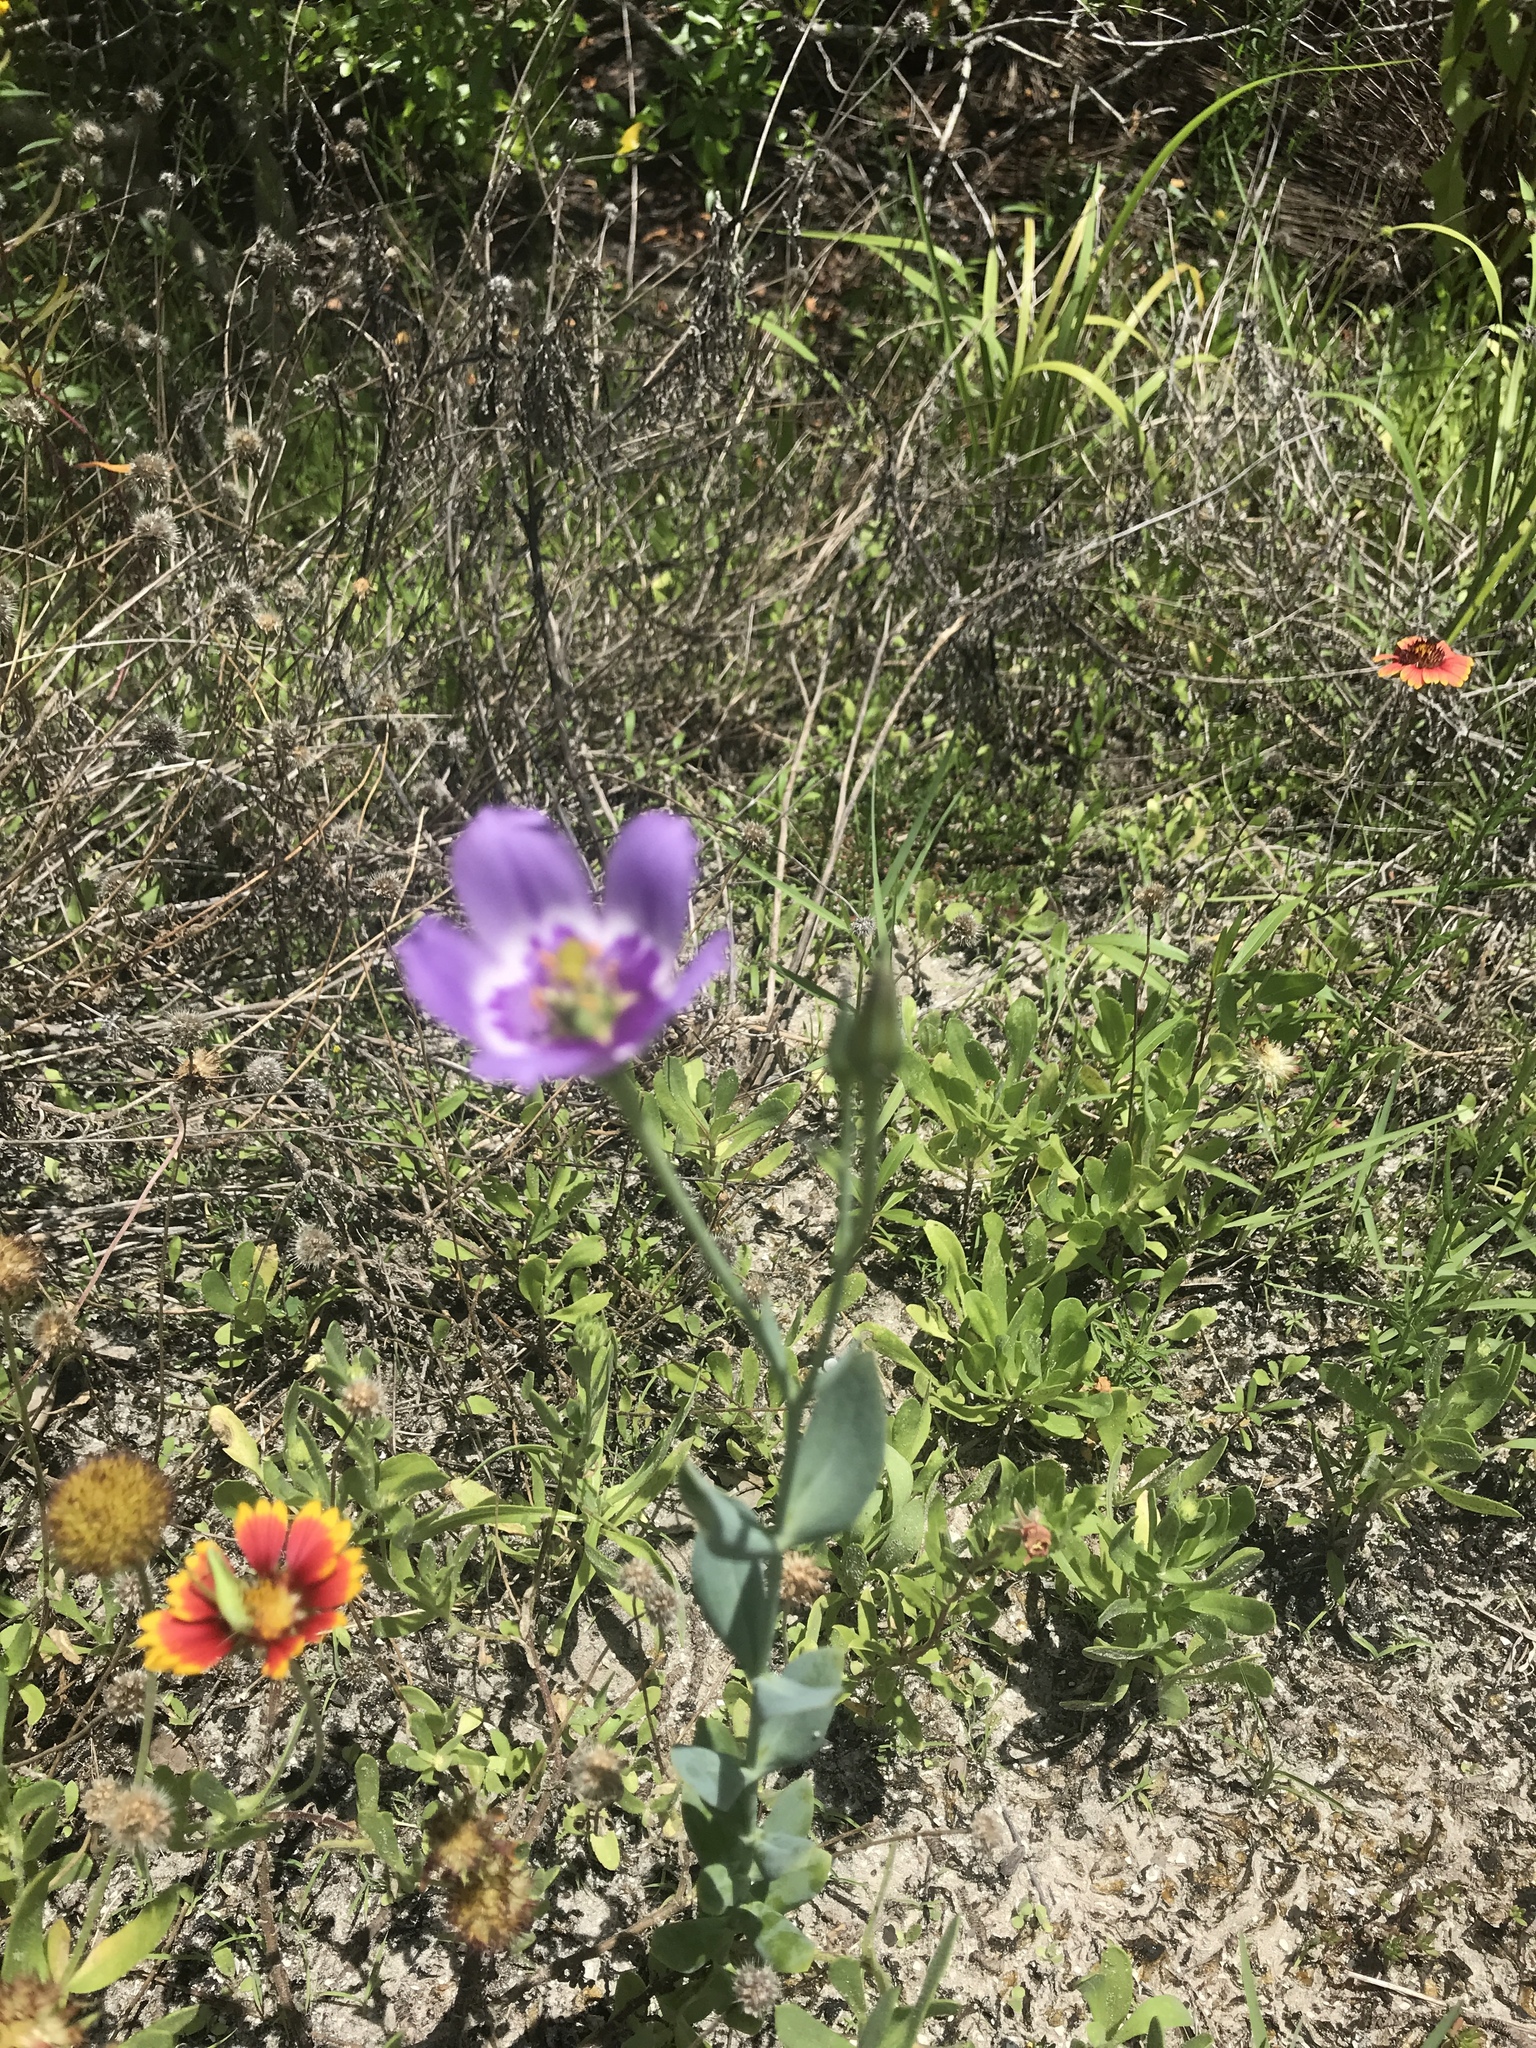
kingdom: Plantae
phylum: Tracheophyta
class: Magnoliopsida
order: Gentianales
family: Gentianaceae
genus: Eustoma
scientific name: Eustoma exaltatum
